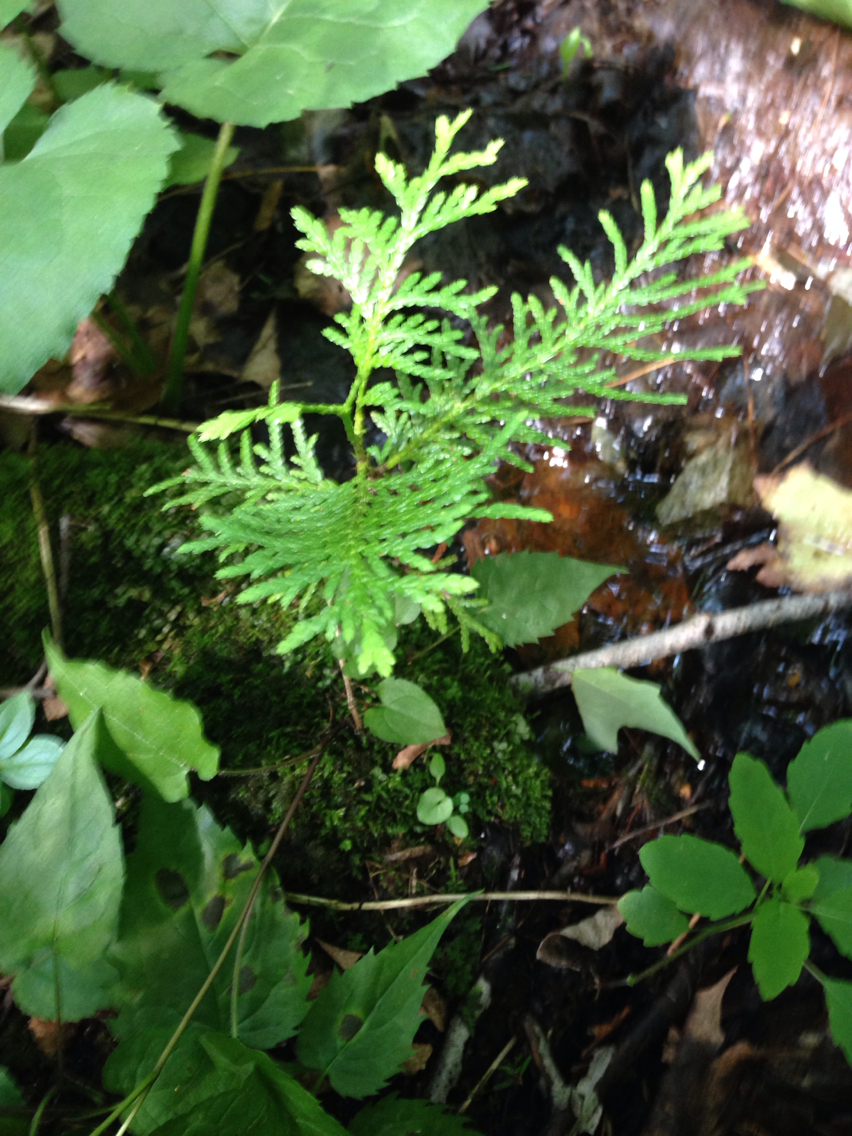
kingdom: Plantae
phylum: Tracheophyta
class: Pinopsida
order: Pinales
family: Cupressaceae
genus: Thuja
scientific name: Thuja occidentalis
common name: Northern white-cedar
